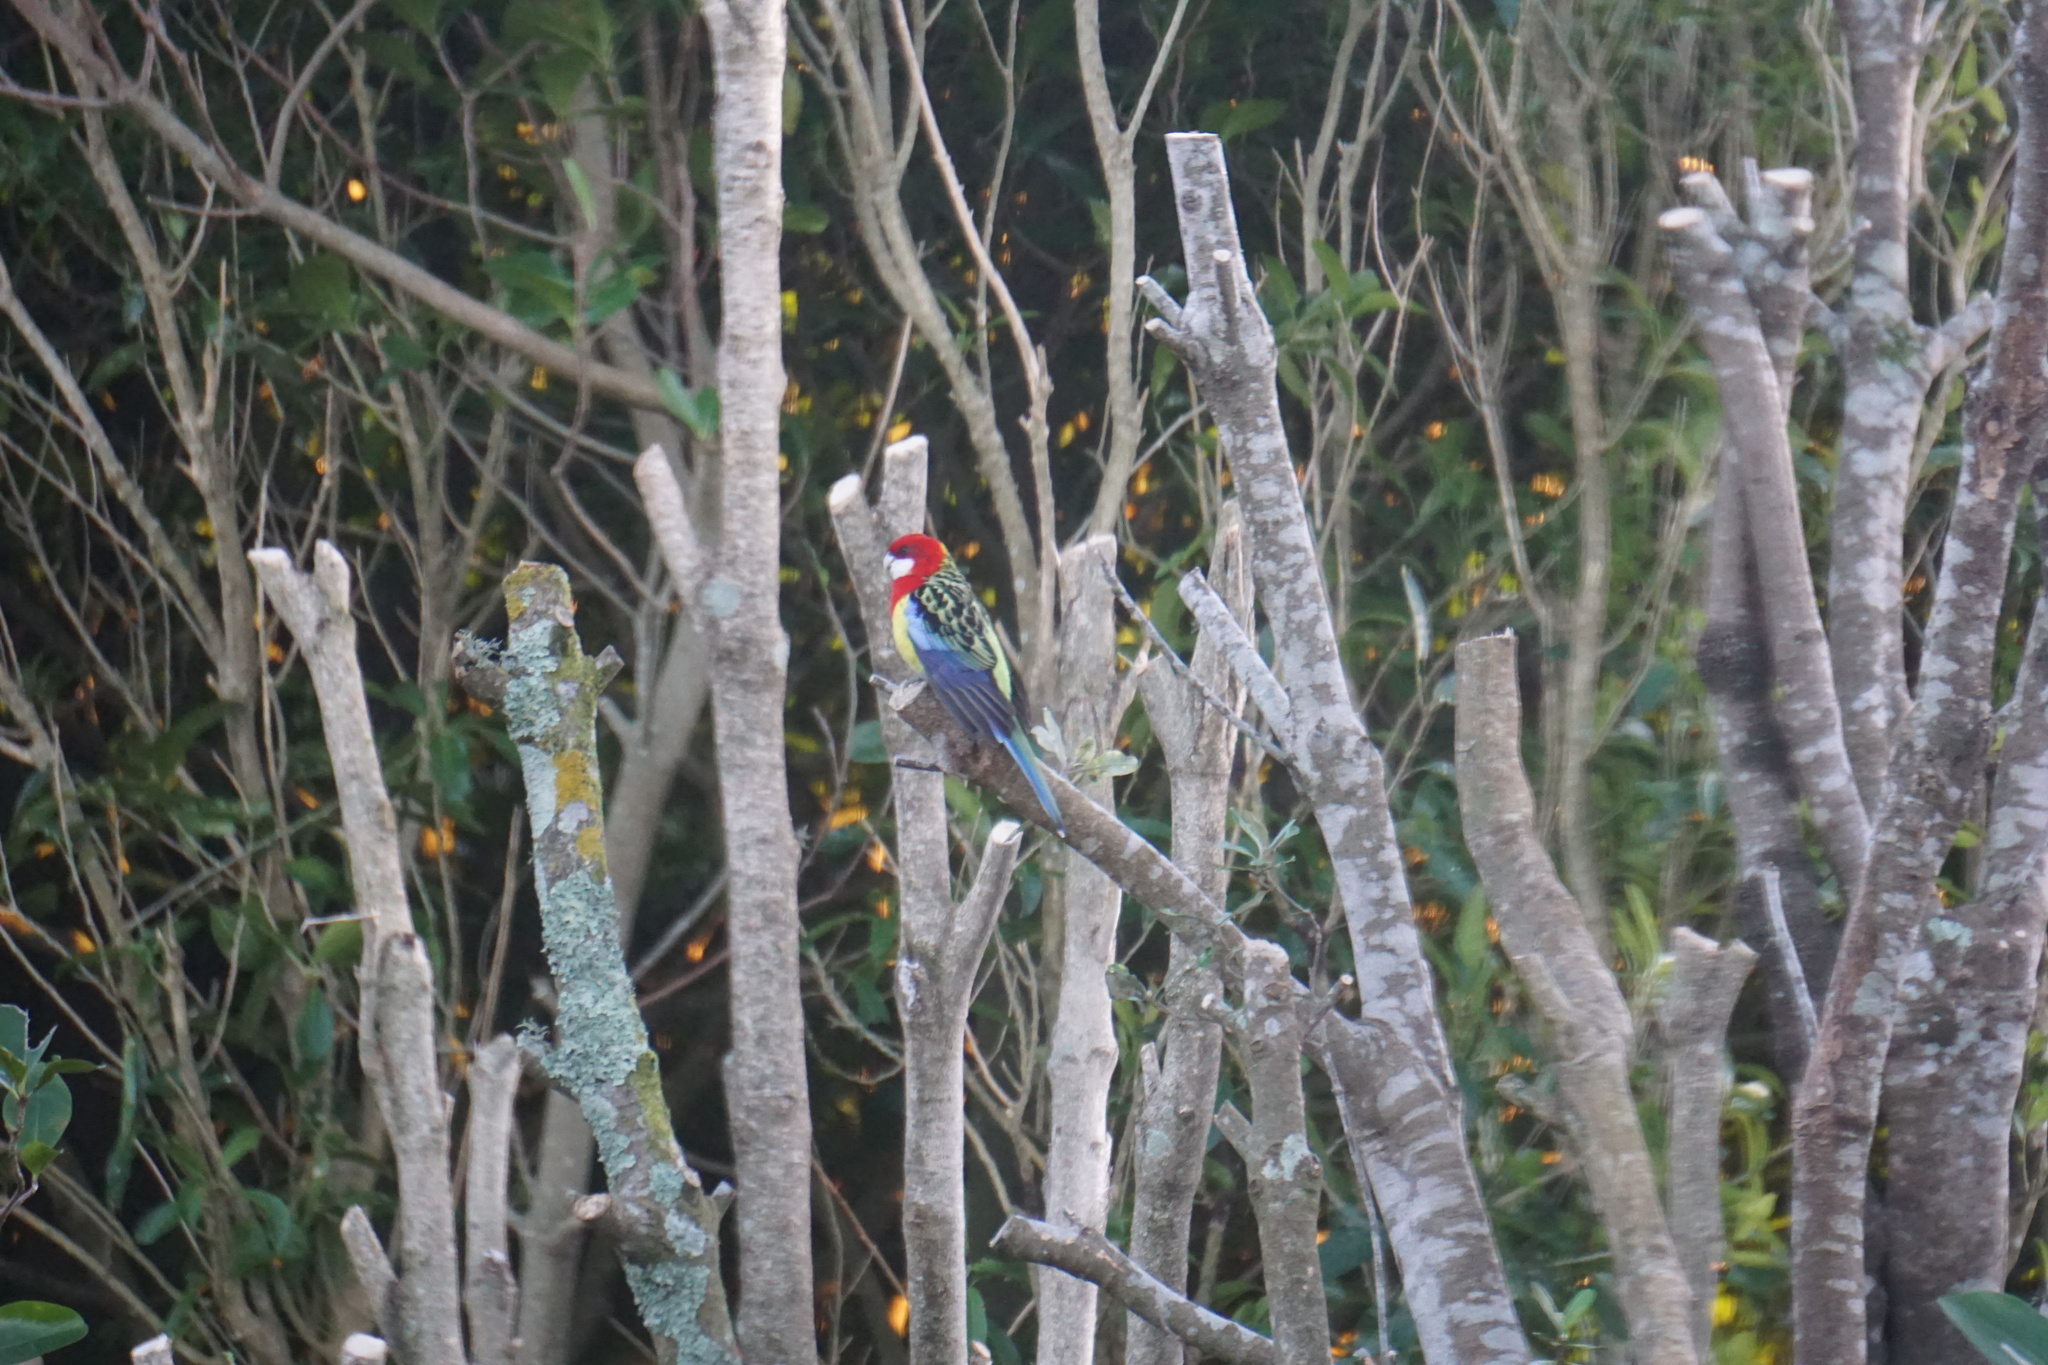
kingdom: Animalia
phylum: Chordata
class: Aves
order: Psittaciformes
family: Psittacidae
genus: Platycercus
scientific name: Platycercus eximius
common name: Eastern rosella
